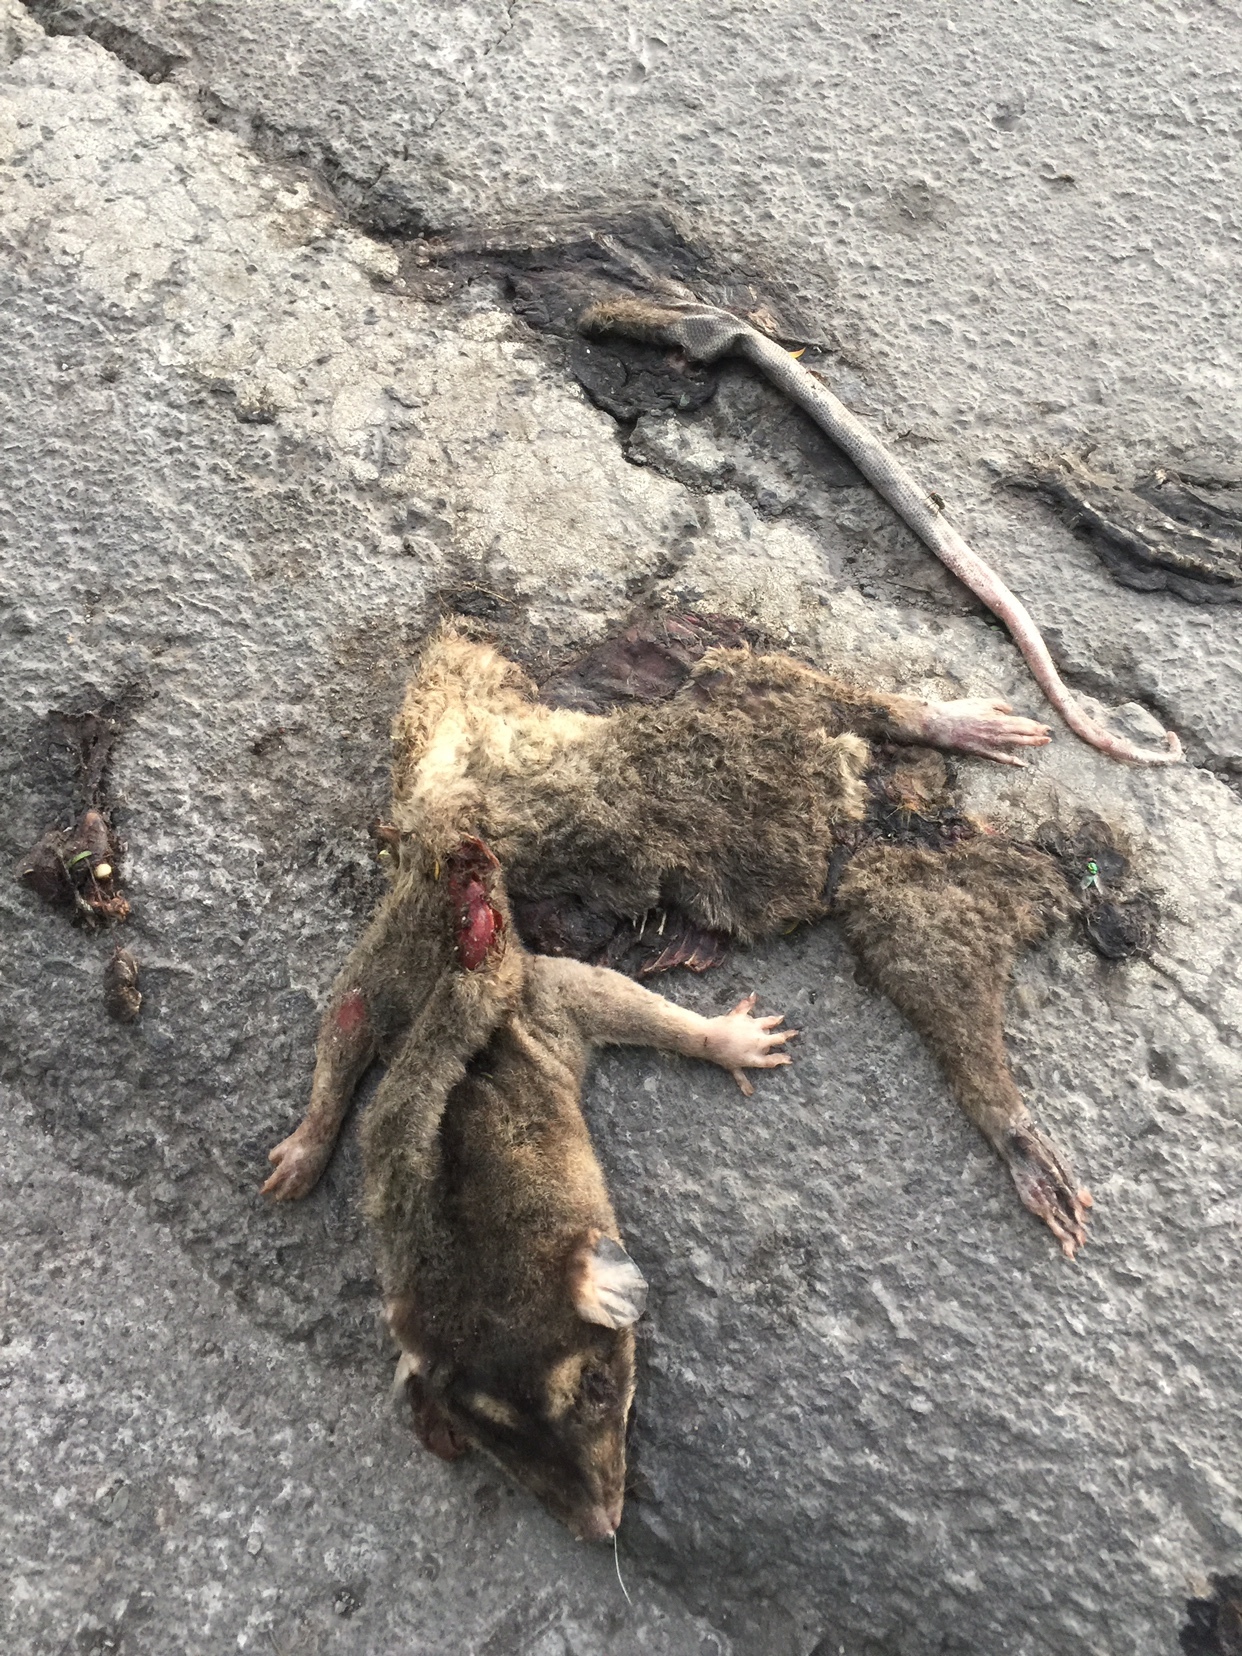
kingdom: Animalia
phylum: Chordata
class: Mammalia
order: Didelphimorphia
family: Didelphidae
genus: Philander
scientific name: Philander
